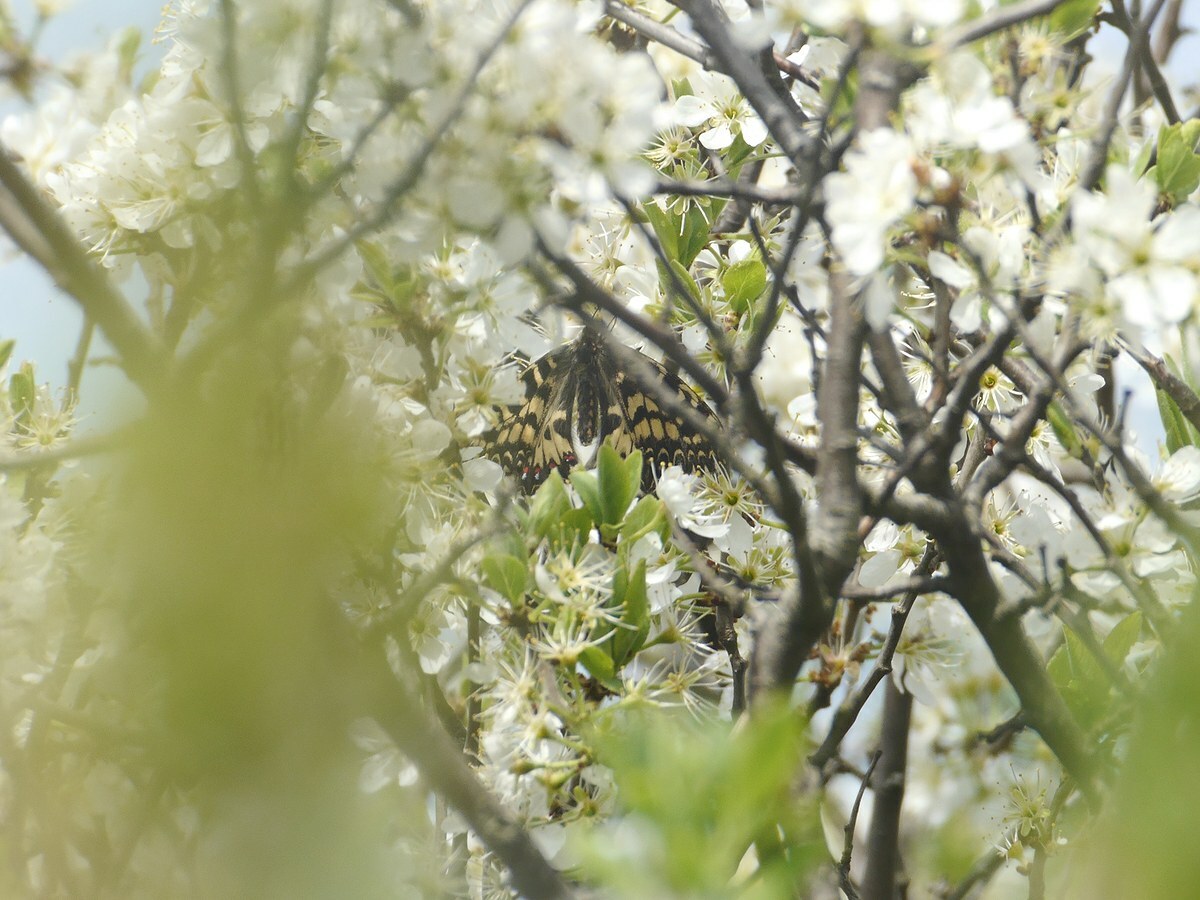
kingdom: Animalia
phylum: Arthropoda
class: Insecta
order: Lepidoptera
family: Papilionidae
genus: Zerynthia
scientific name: Zerynthia polyxena
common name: Southern festoon
